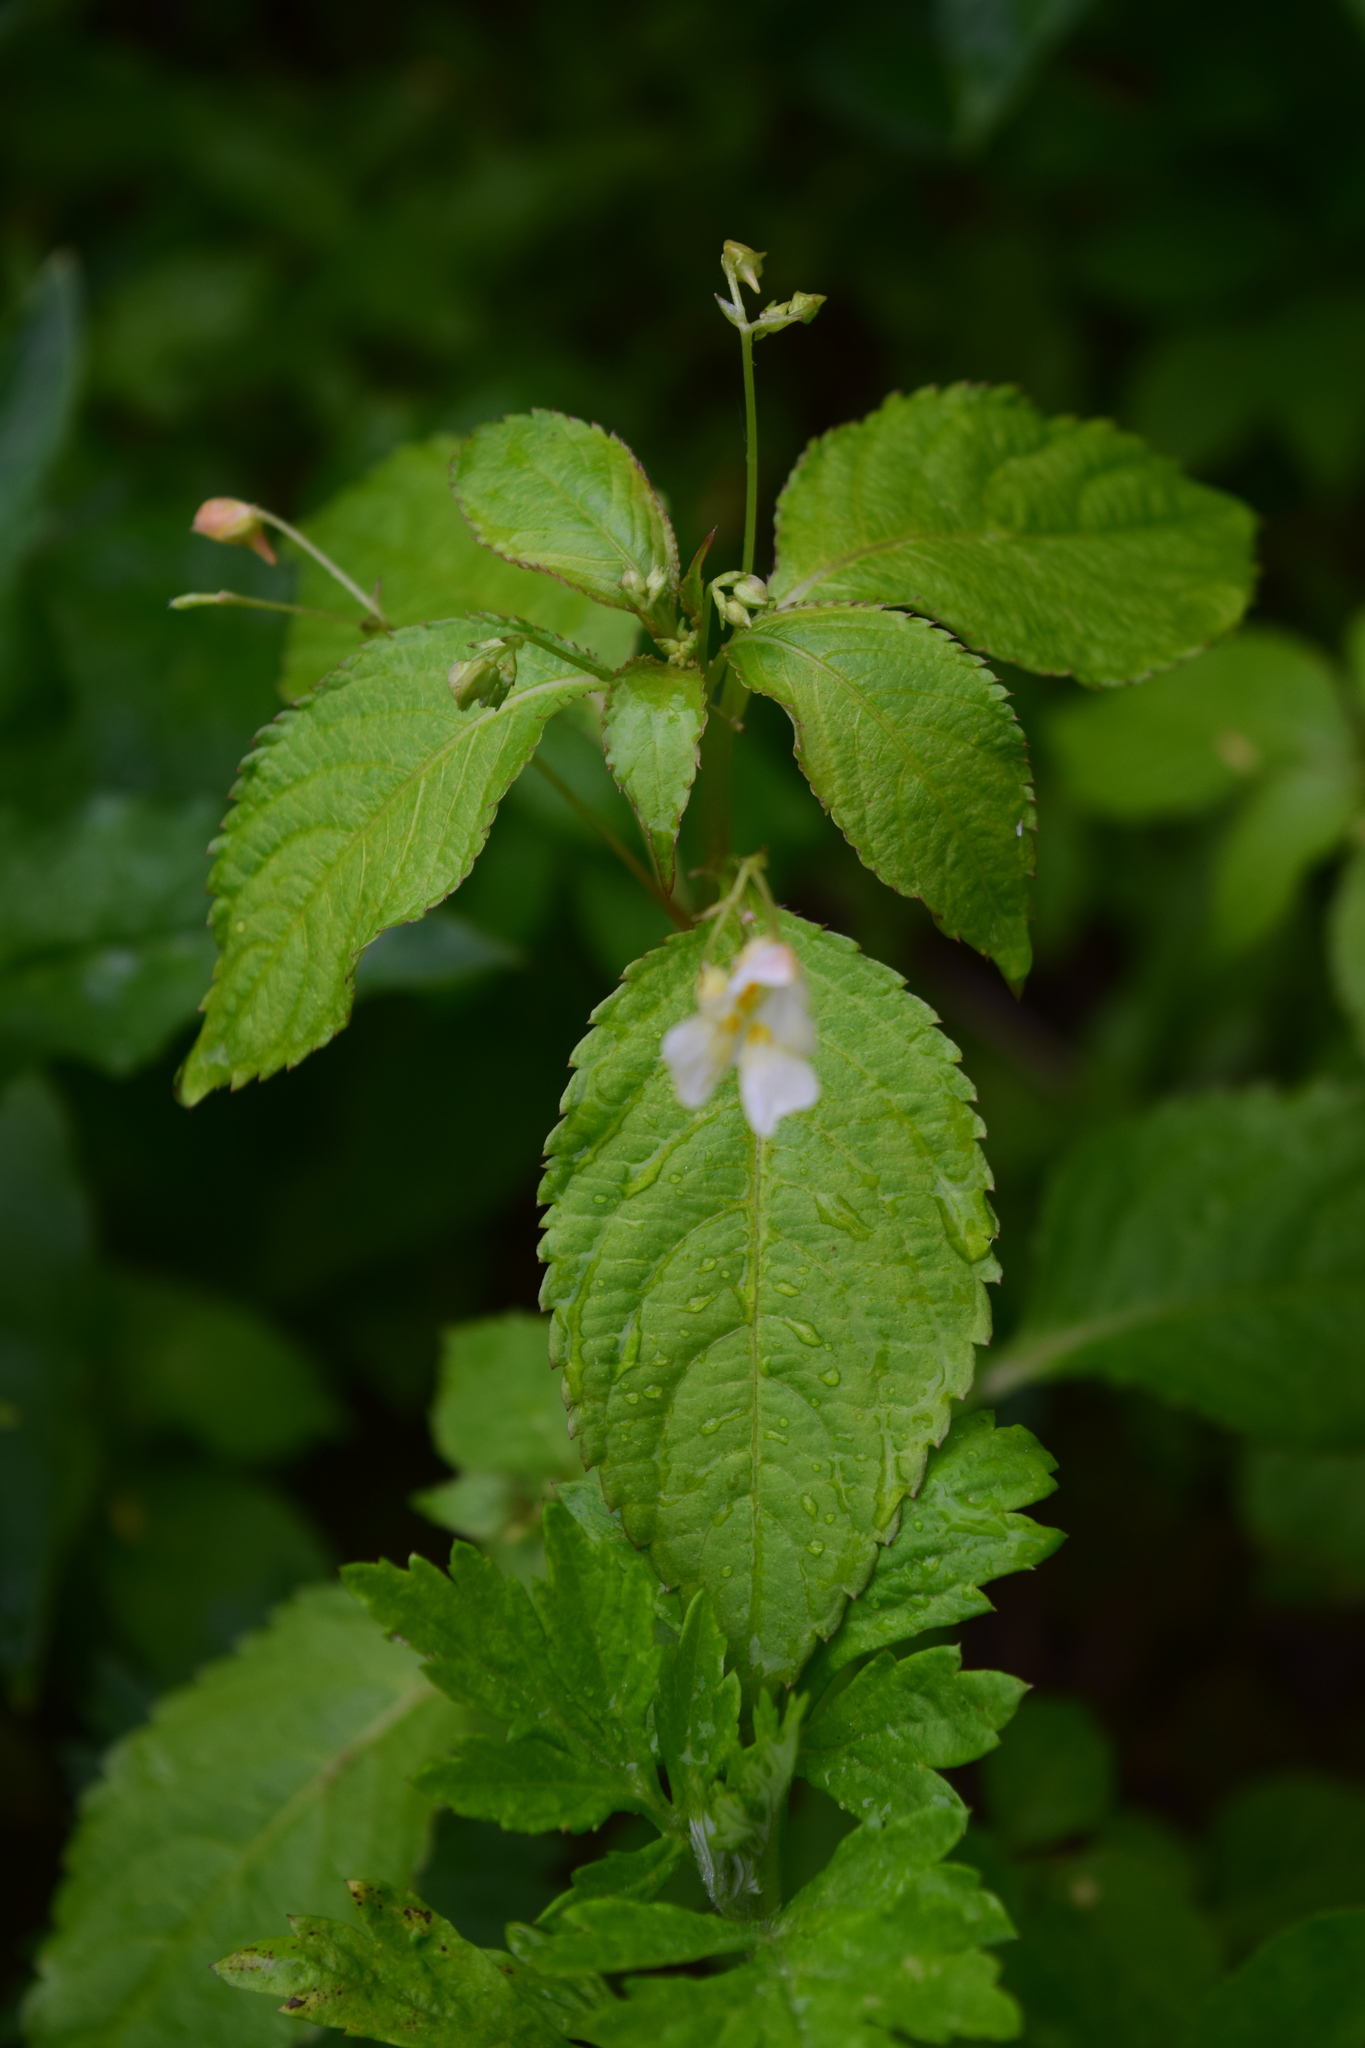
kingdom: Plantae
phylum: Tracheophyta
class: Magnoliopsida
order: Ericales
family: Balsaminaceae
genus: Impatiens
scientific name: Impatiens parviflora
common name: Small balsam
